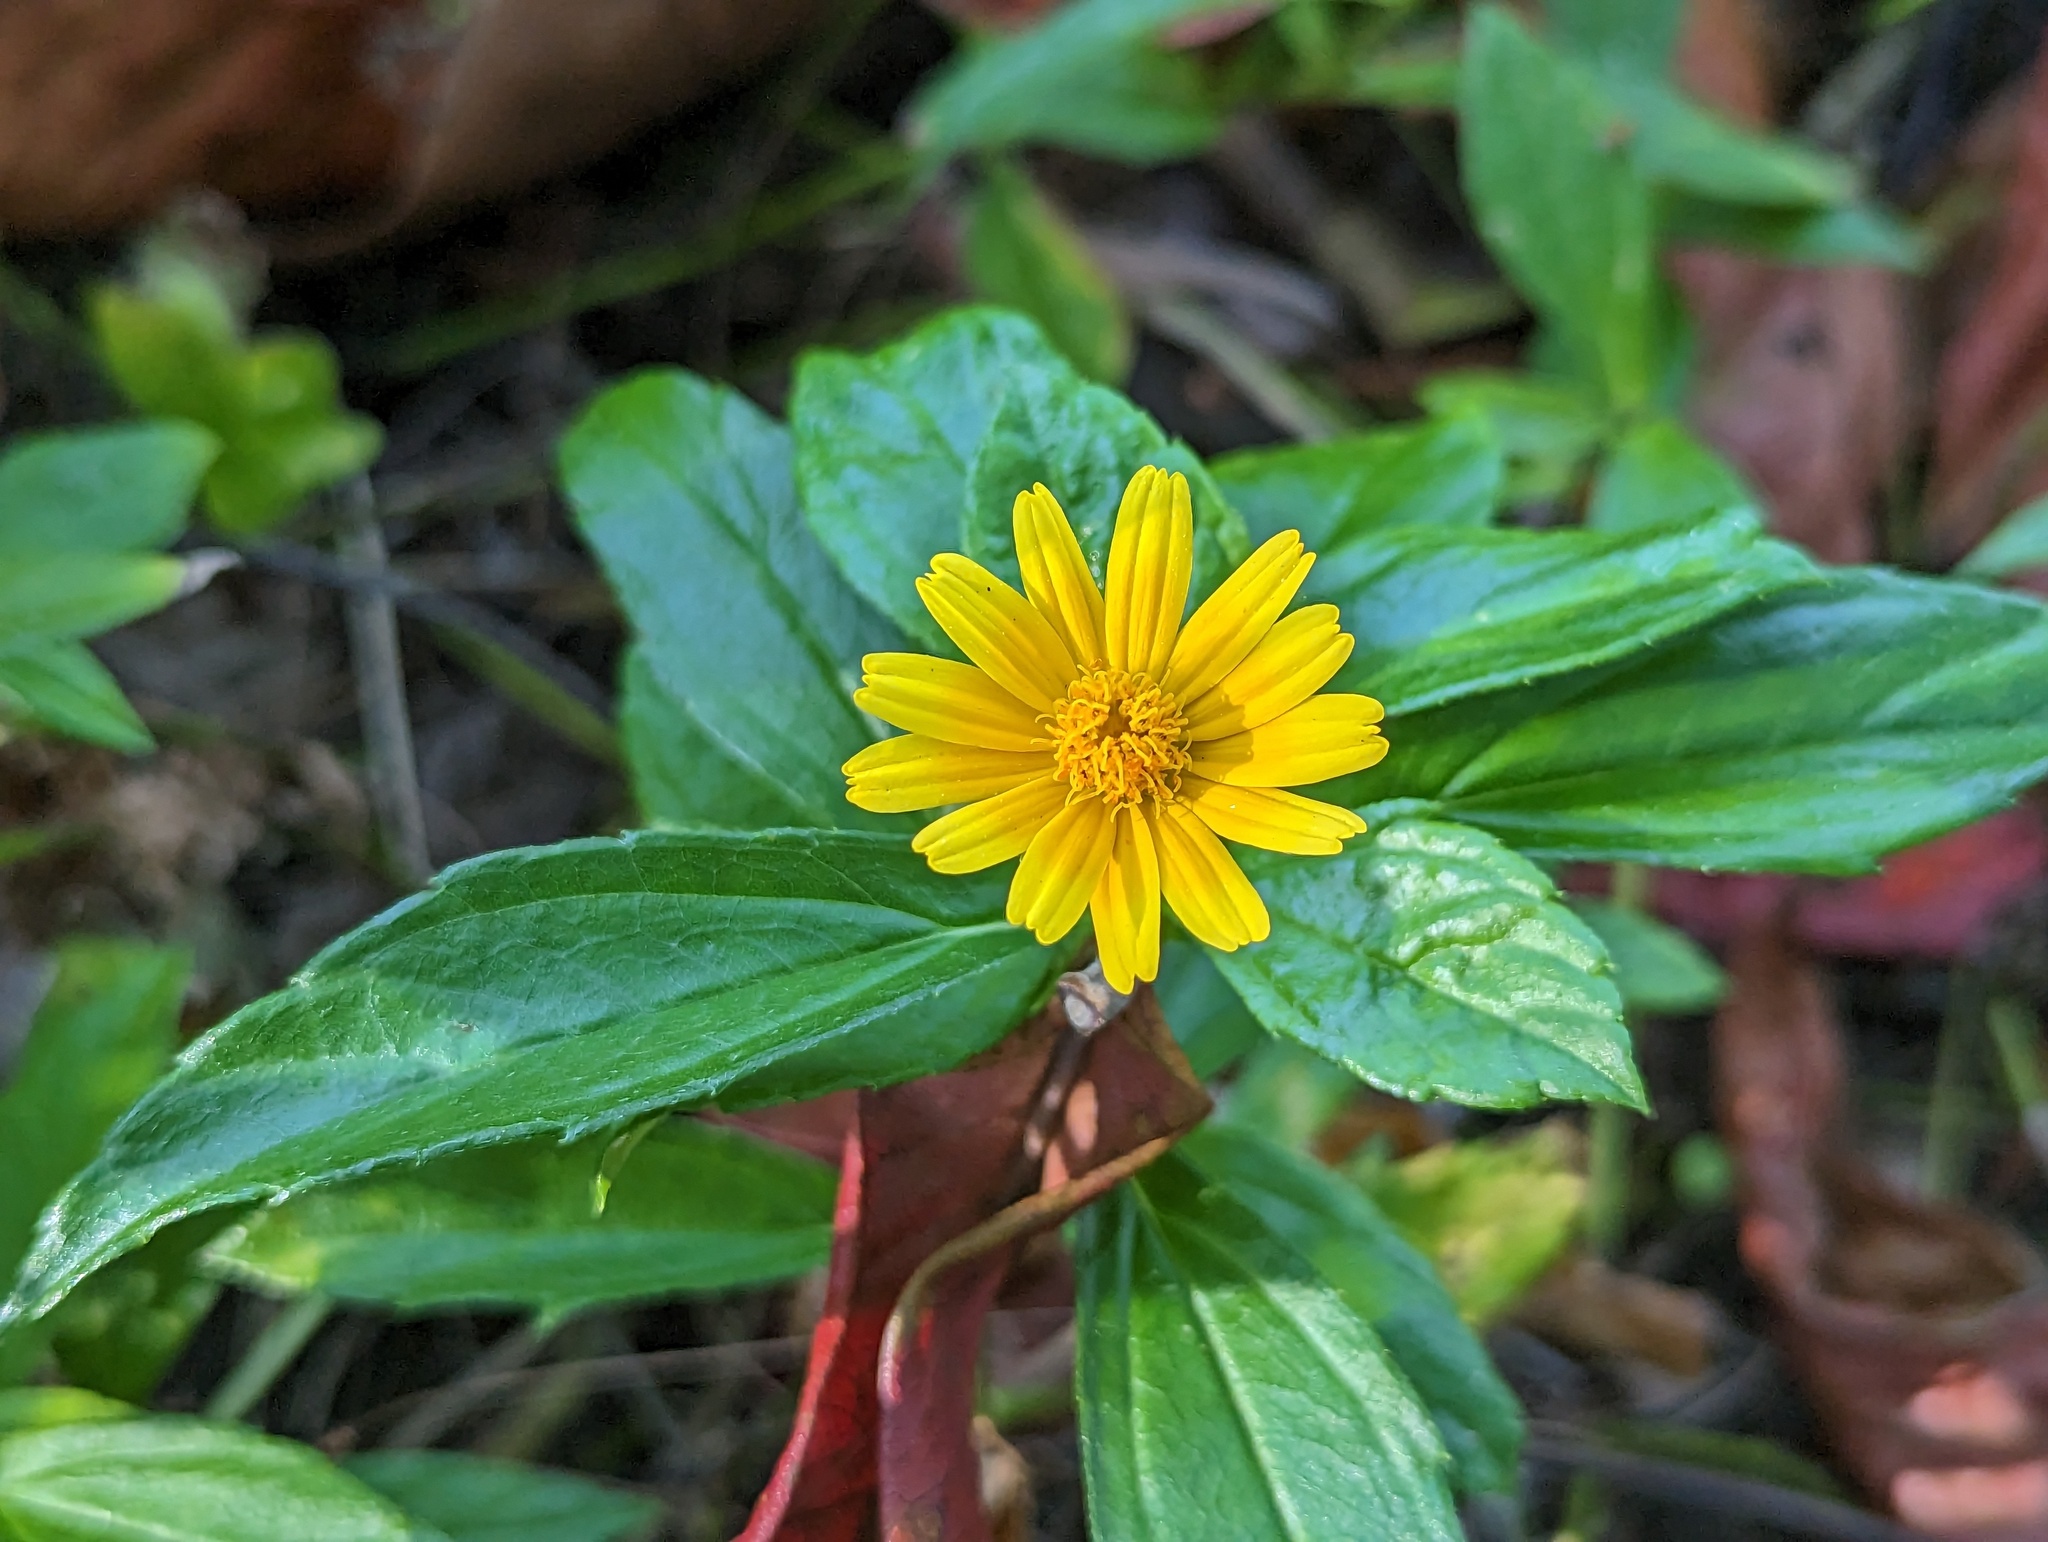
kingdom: Plantae
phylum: Tracheophyta
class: Magnoliopsida
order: Asterales
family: Asteraceae
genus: Sphagneticola
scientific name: Sphagneticola trilobata
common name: Bay biscayne creeping-oxeye
